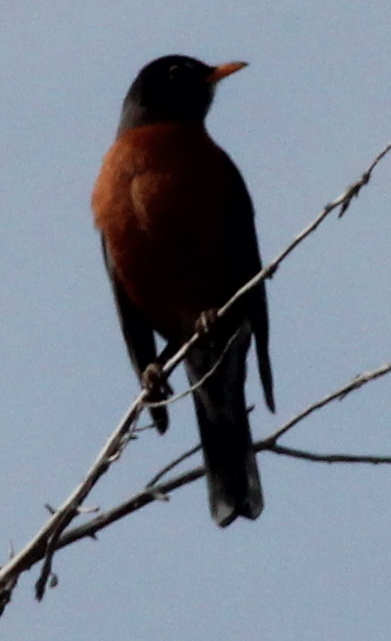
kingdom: Animalia
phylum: Chordata
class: Aves
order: Passeriformes
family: Turdidae
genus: Turdus
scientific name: Turdus migratorius
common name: American robin
